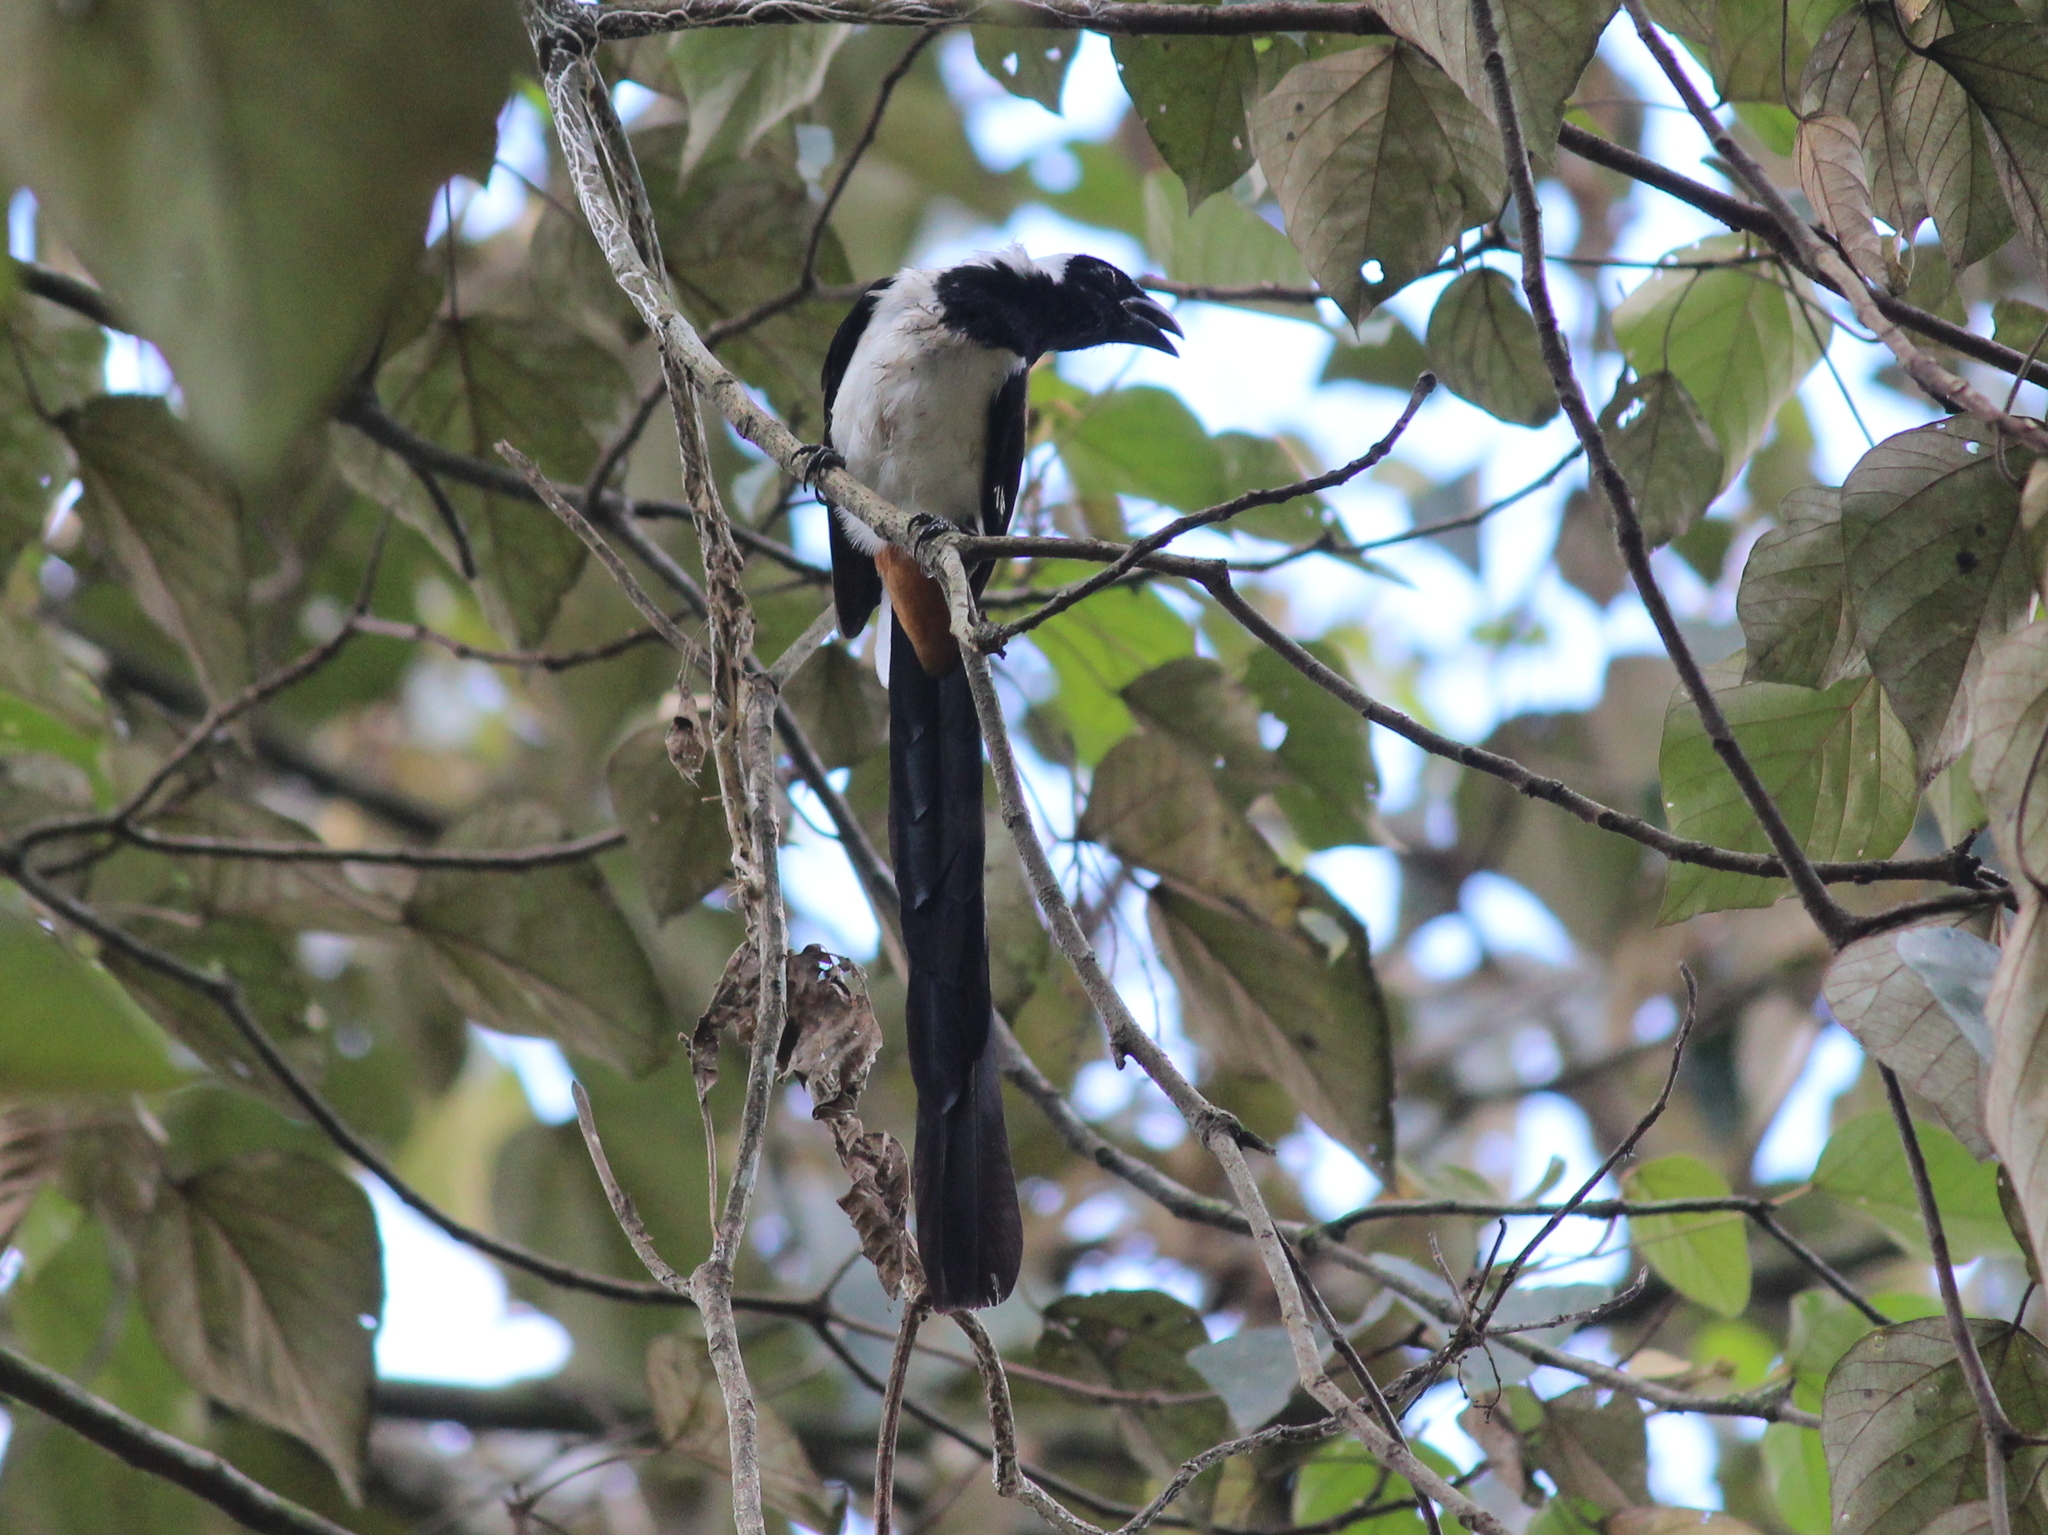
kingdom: Animalia
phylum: Chordata
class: Aves
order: Passeriformes
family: Corvidae
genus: Dendrocitta
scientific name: Dendrocitta leucogastra
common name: White-bellied treepie
